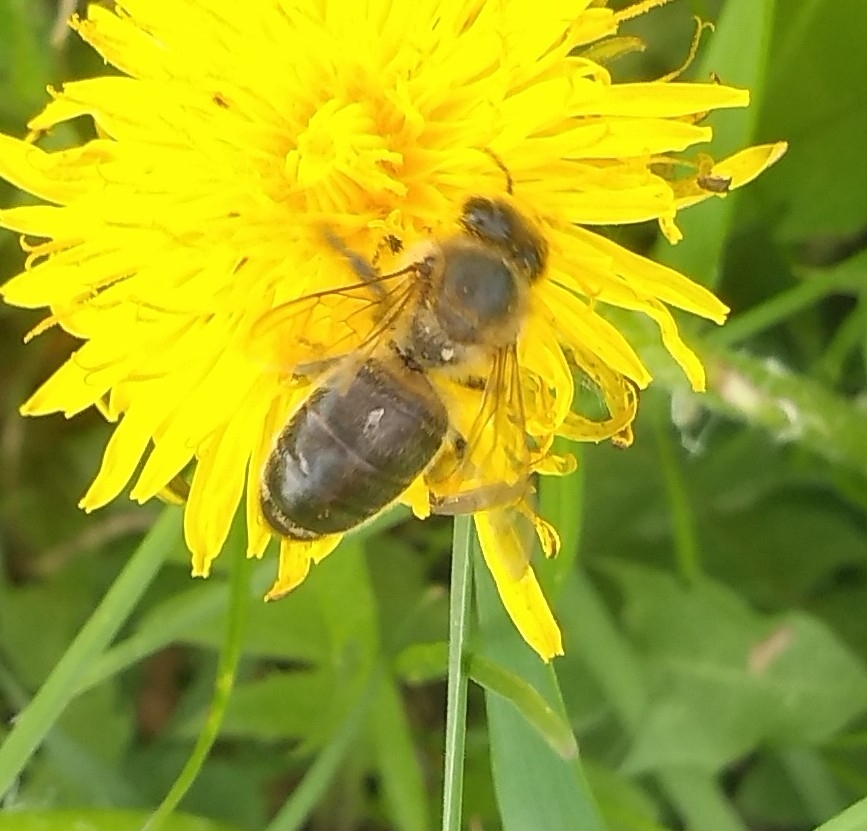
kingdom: Animalia
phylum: Arthropoda
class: Insecta
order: Hymenoptera
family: Apidae
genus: Apis
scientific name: Apis mellifera
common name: Honey bee
